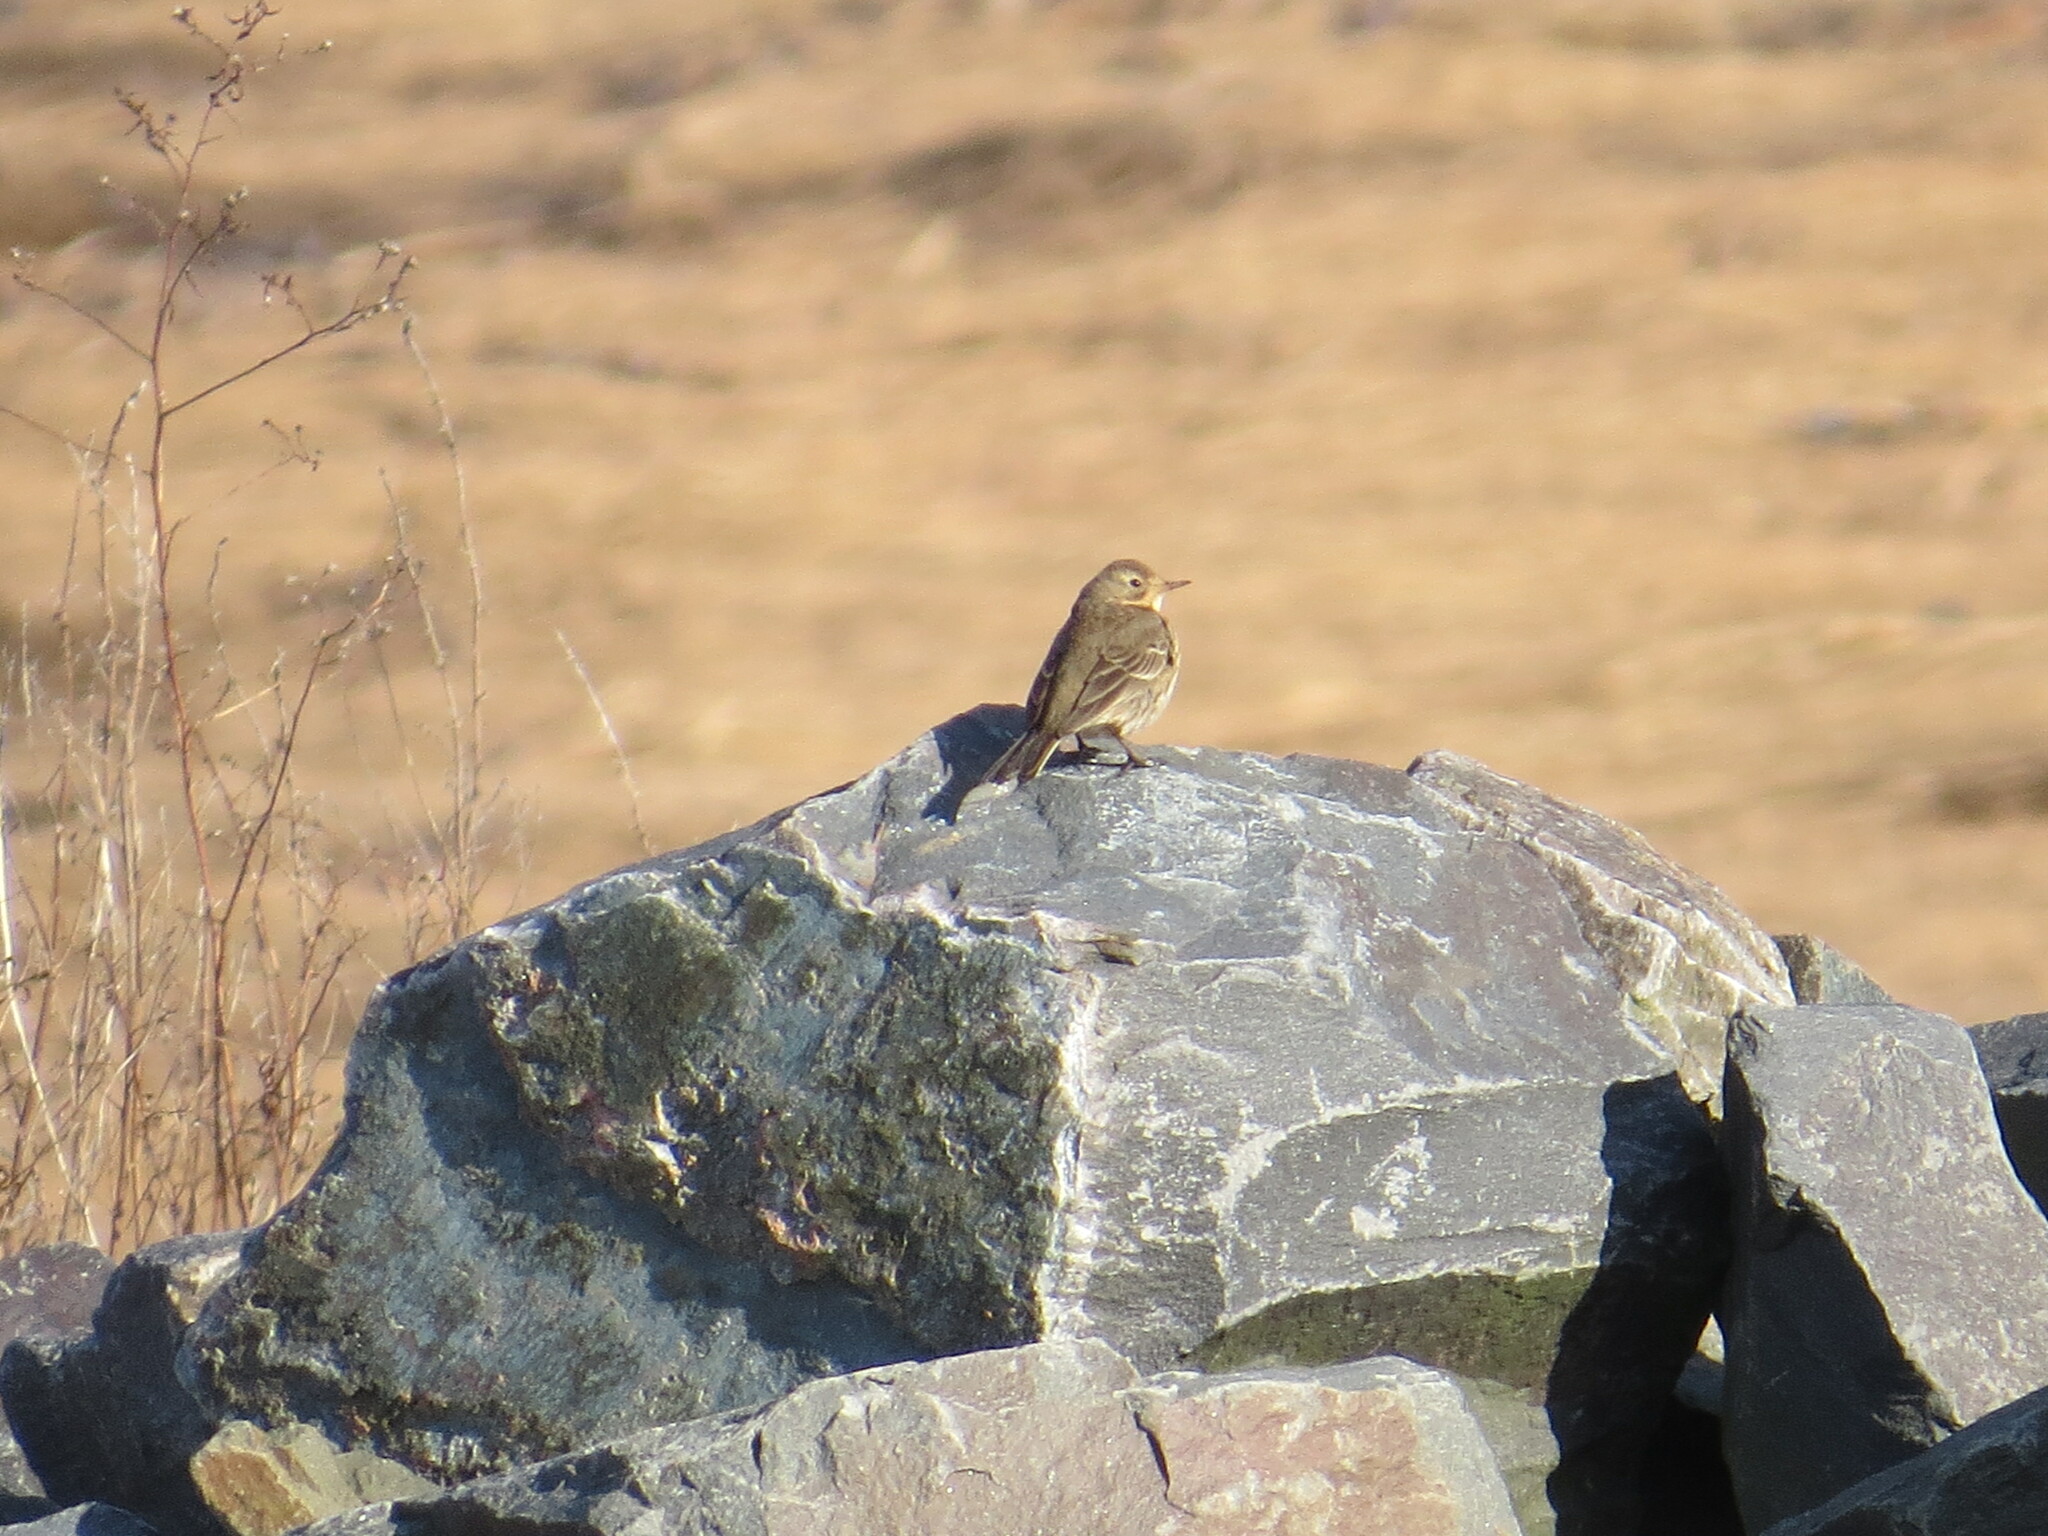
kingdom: Animalia
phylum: Chordata
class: Aves
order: Passeriformes
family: Motacillidae
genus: Anthus
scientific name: Anthus rubescens
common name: Buff-bellied pipit
